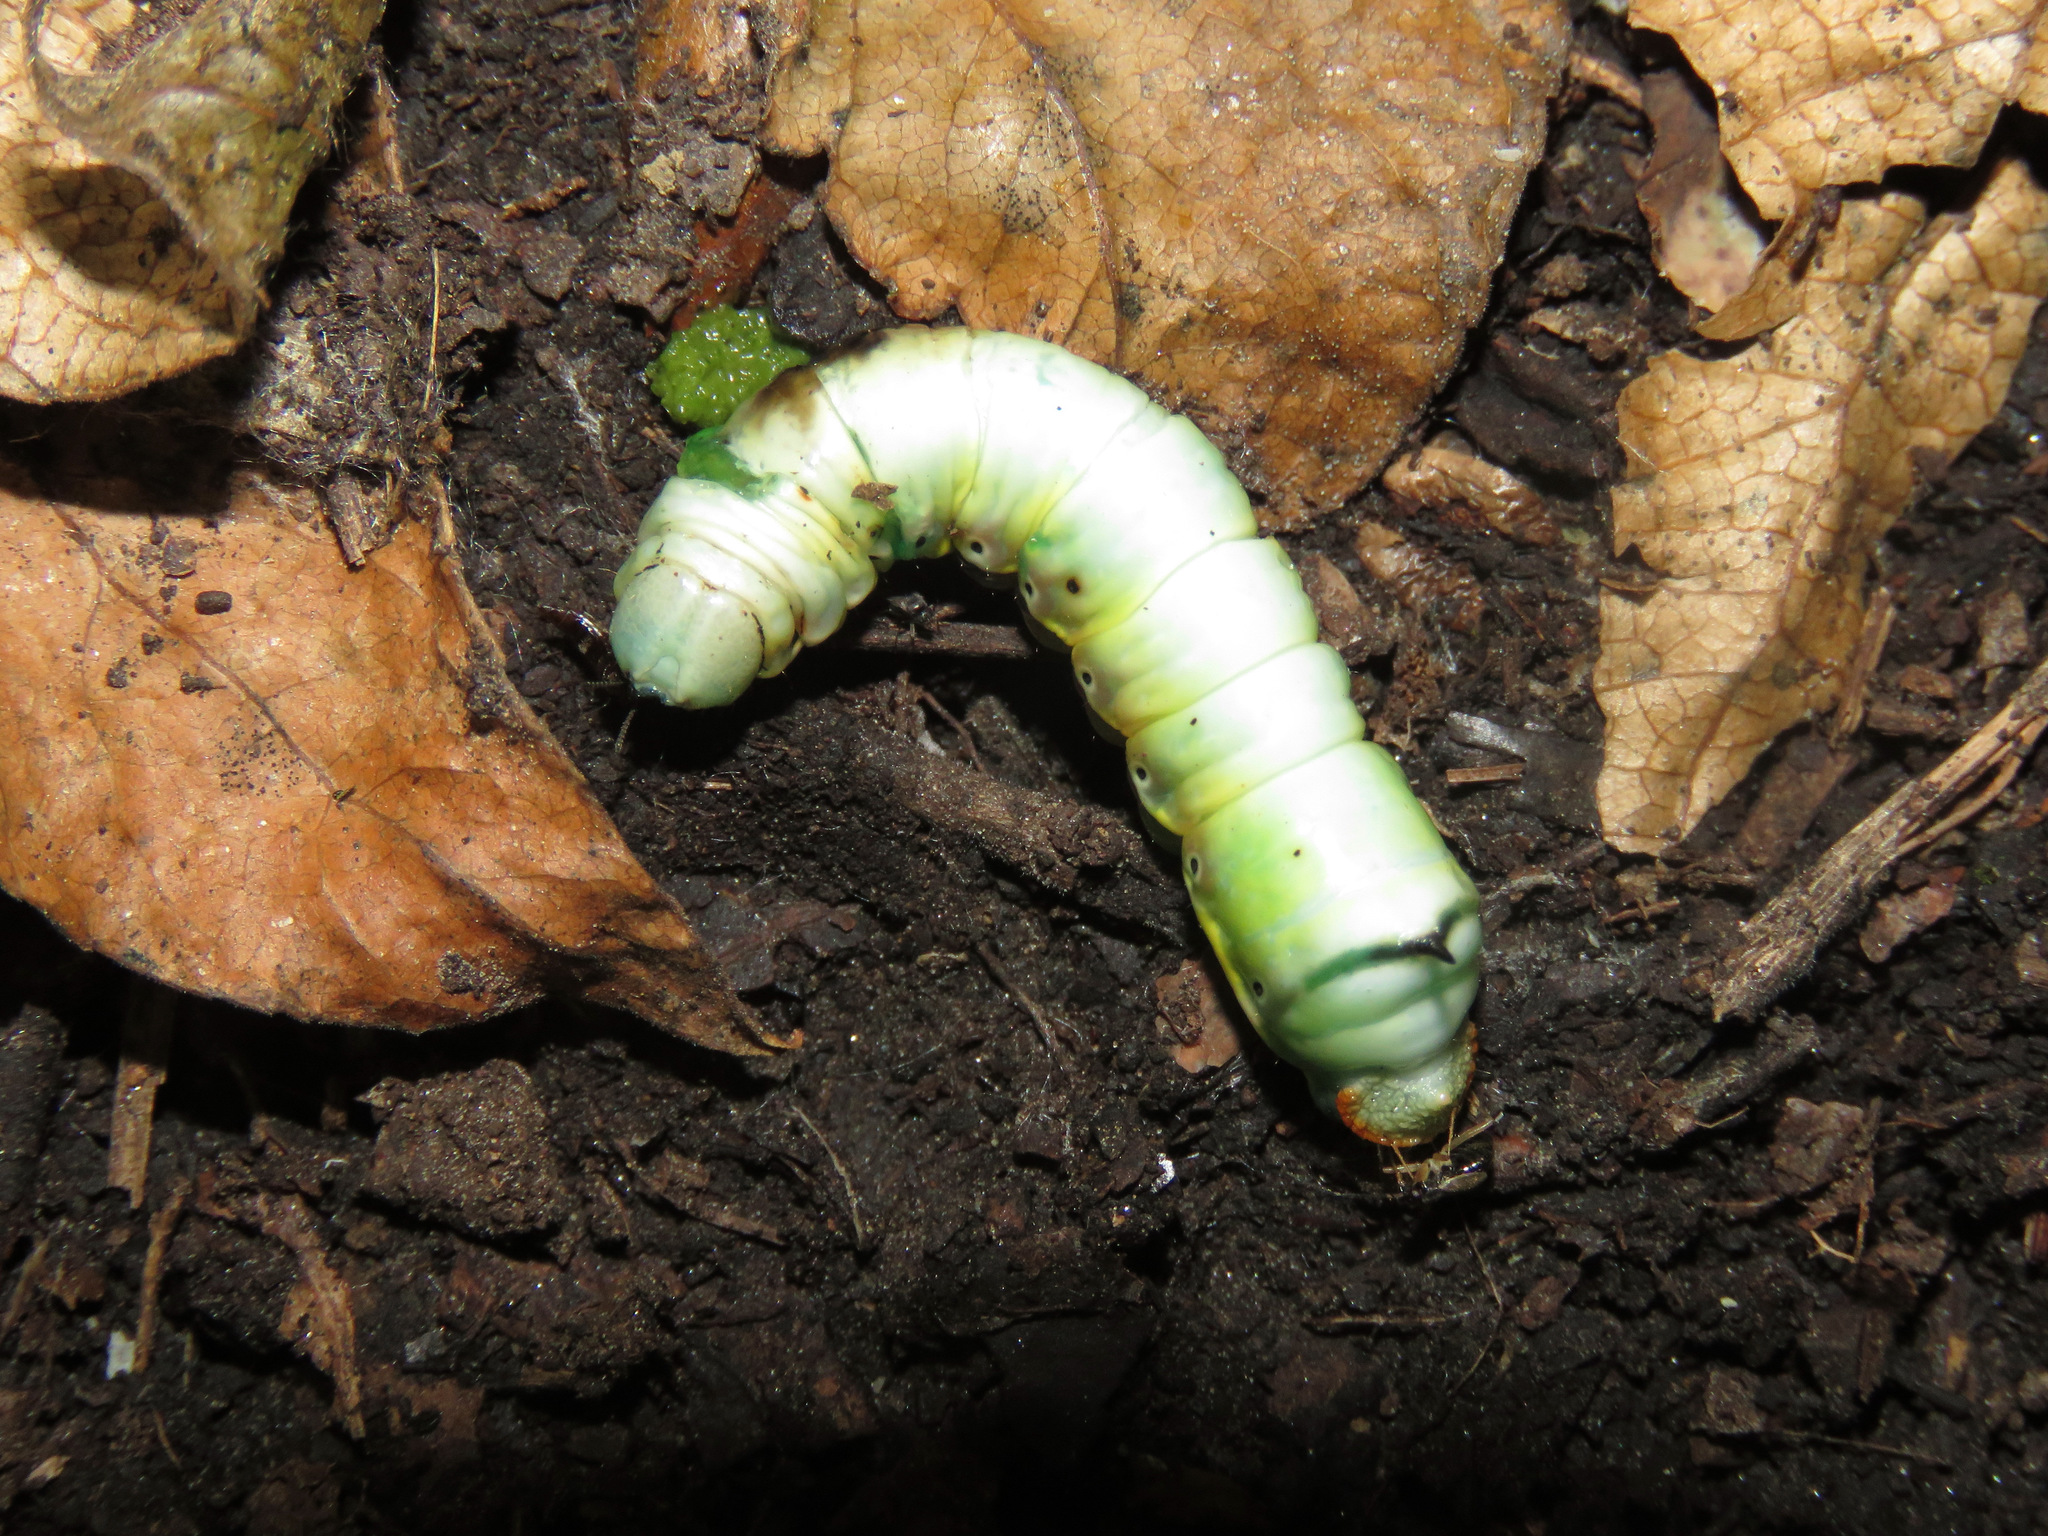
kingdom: Animalia
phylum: Arthropoda
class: Insecta
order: Lepidoptera
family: Notodontidae
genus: Pheosia
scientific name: Pheosia rimosa
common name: Black-rimmed prominent
